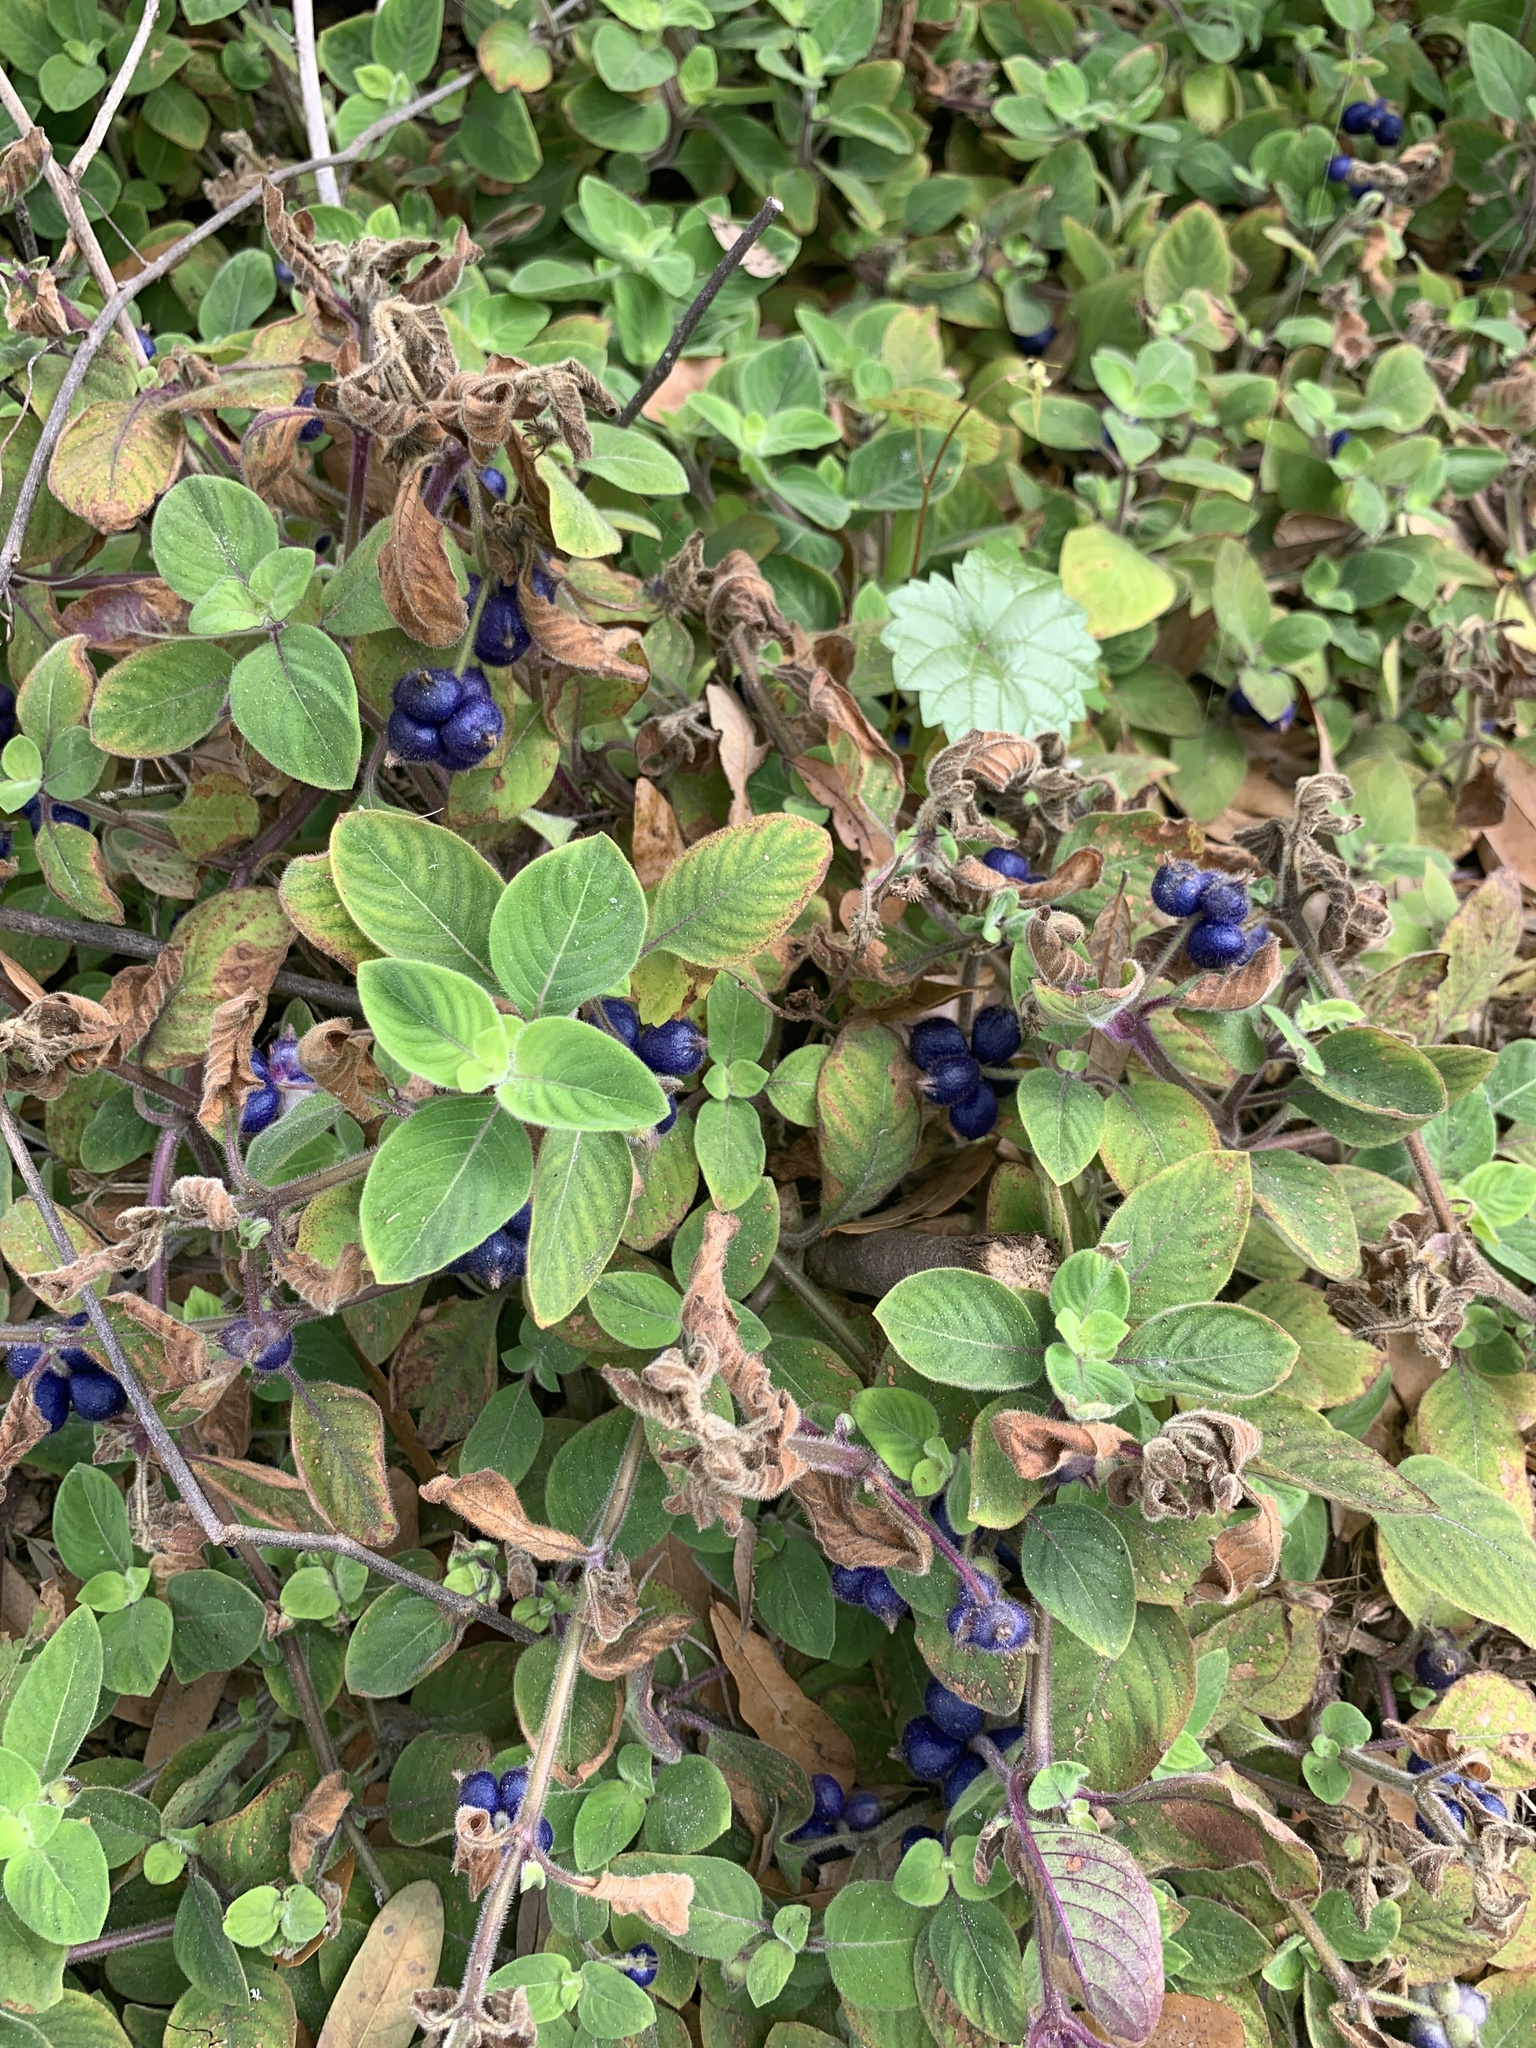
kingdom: Plantae
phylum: Tracheophyta
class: Magnoliopsida
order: Gentianales
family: Rubiaceae
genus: Coccocypselum
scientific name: Coccocypselum hirsutum
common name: Yerba de guava
